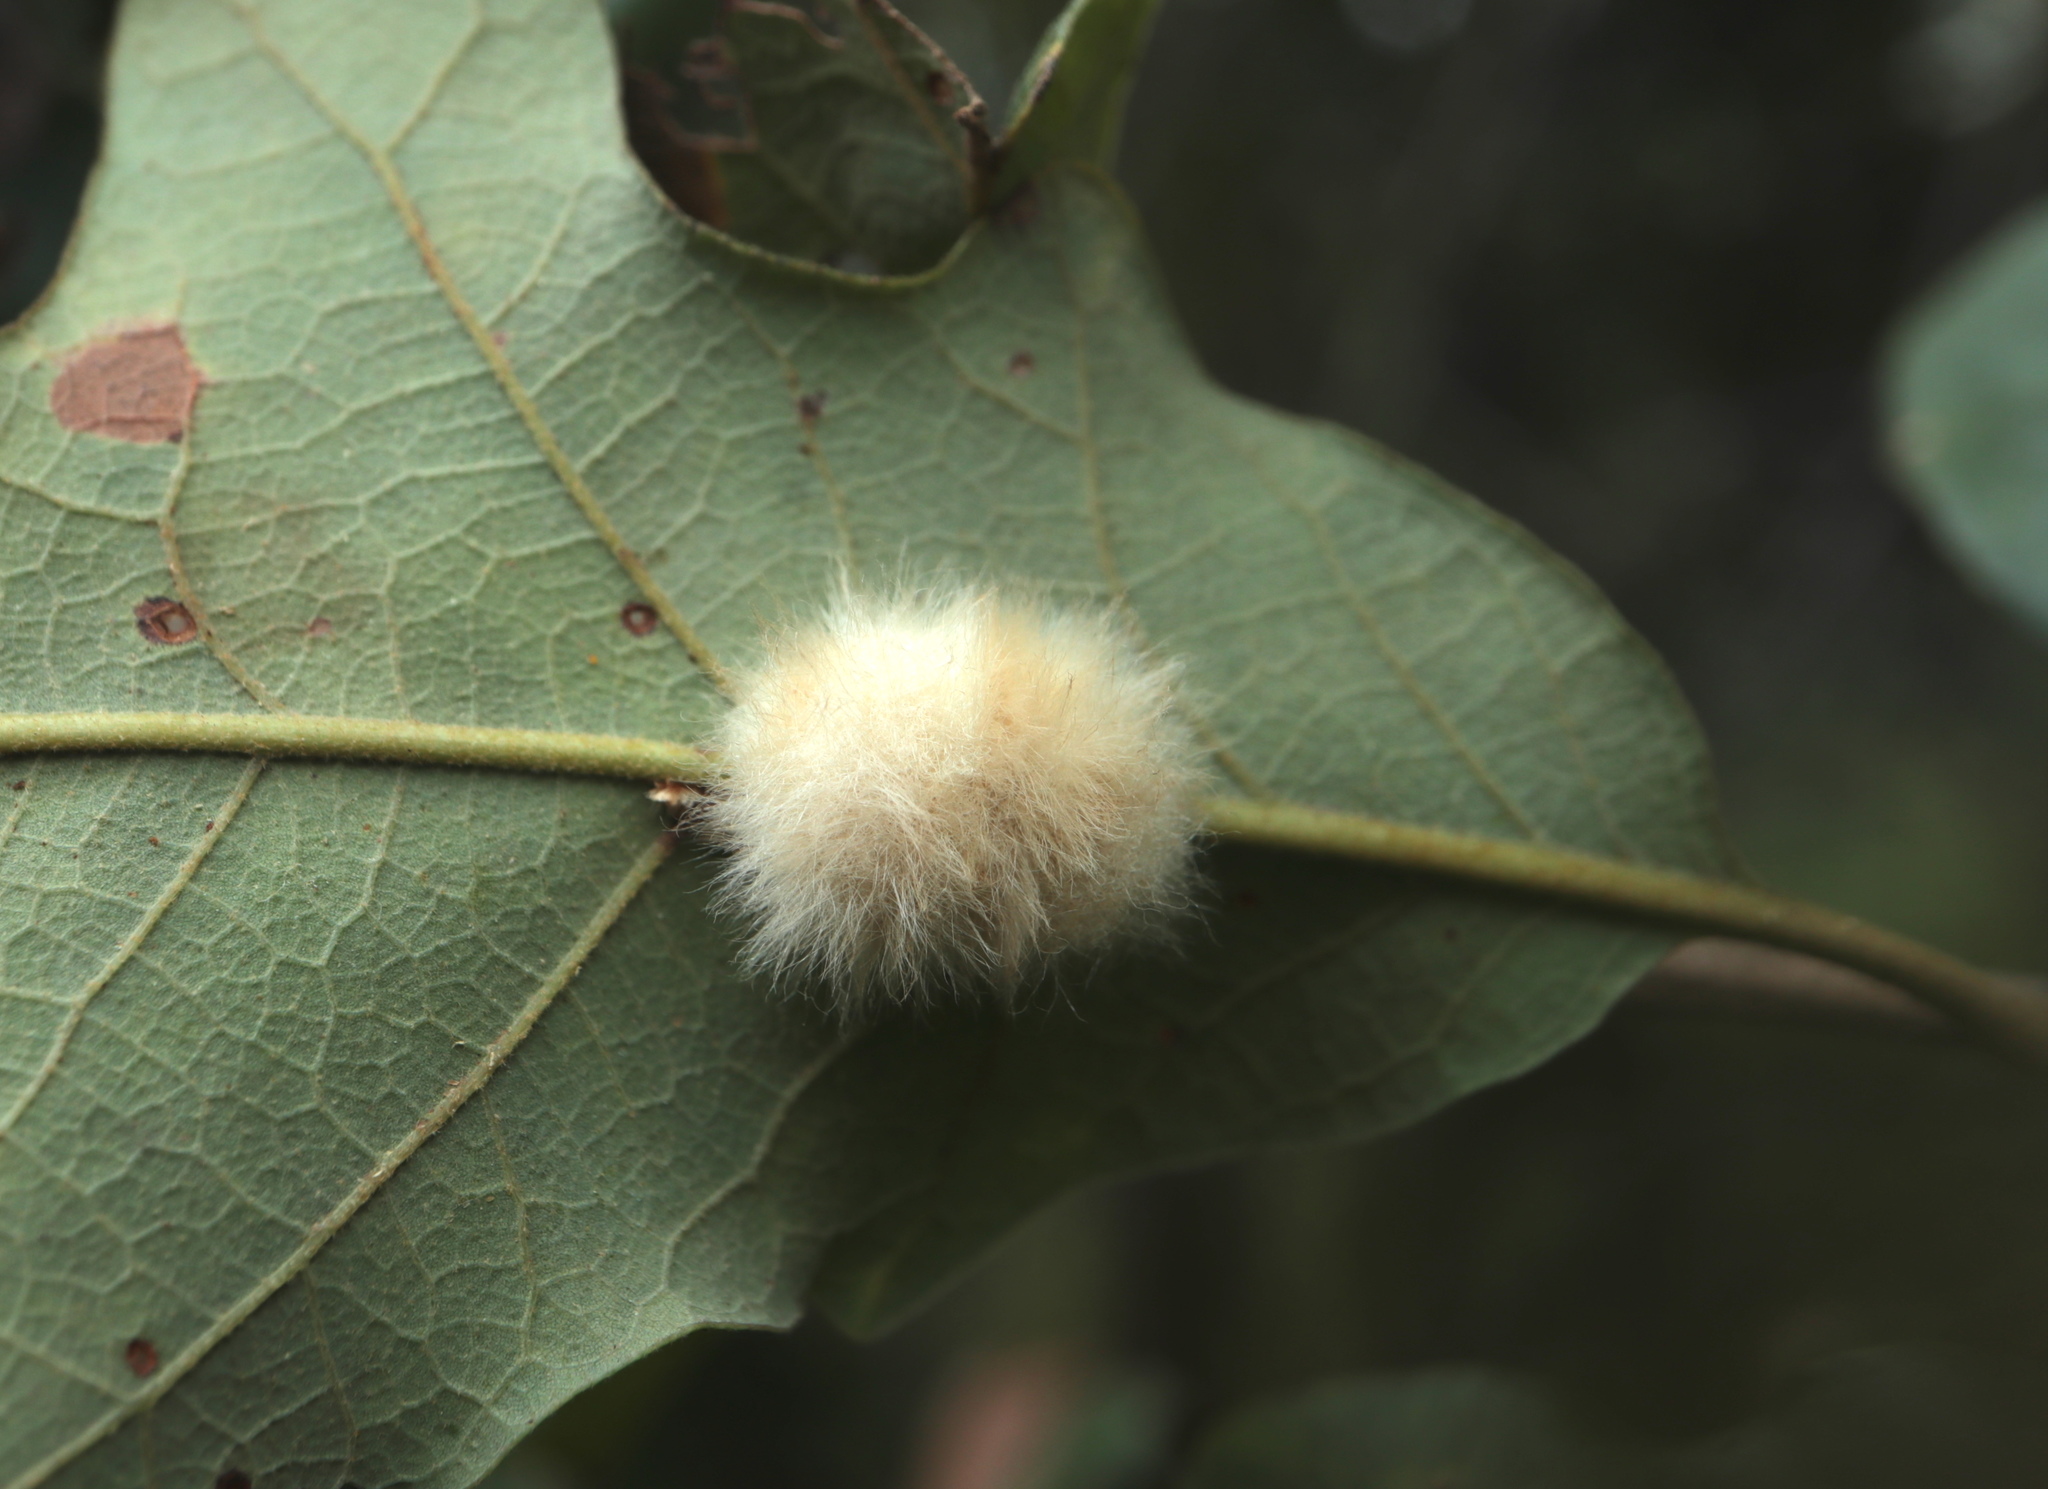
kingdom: Animalia
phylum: Arthropoda
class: Insecta
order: Hymenoptera
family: Cynipidae
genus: Andricus
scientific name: Andricus Druon pattoni
